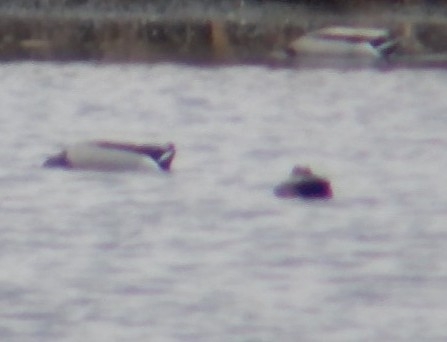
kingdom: Animalia
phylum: Chordata
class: Aves
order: Anseriformes
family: Anatidae
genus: Anas
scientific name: Anas platyrhynchos
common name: Mallard
